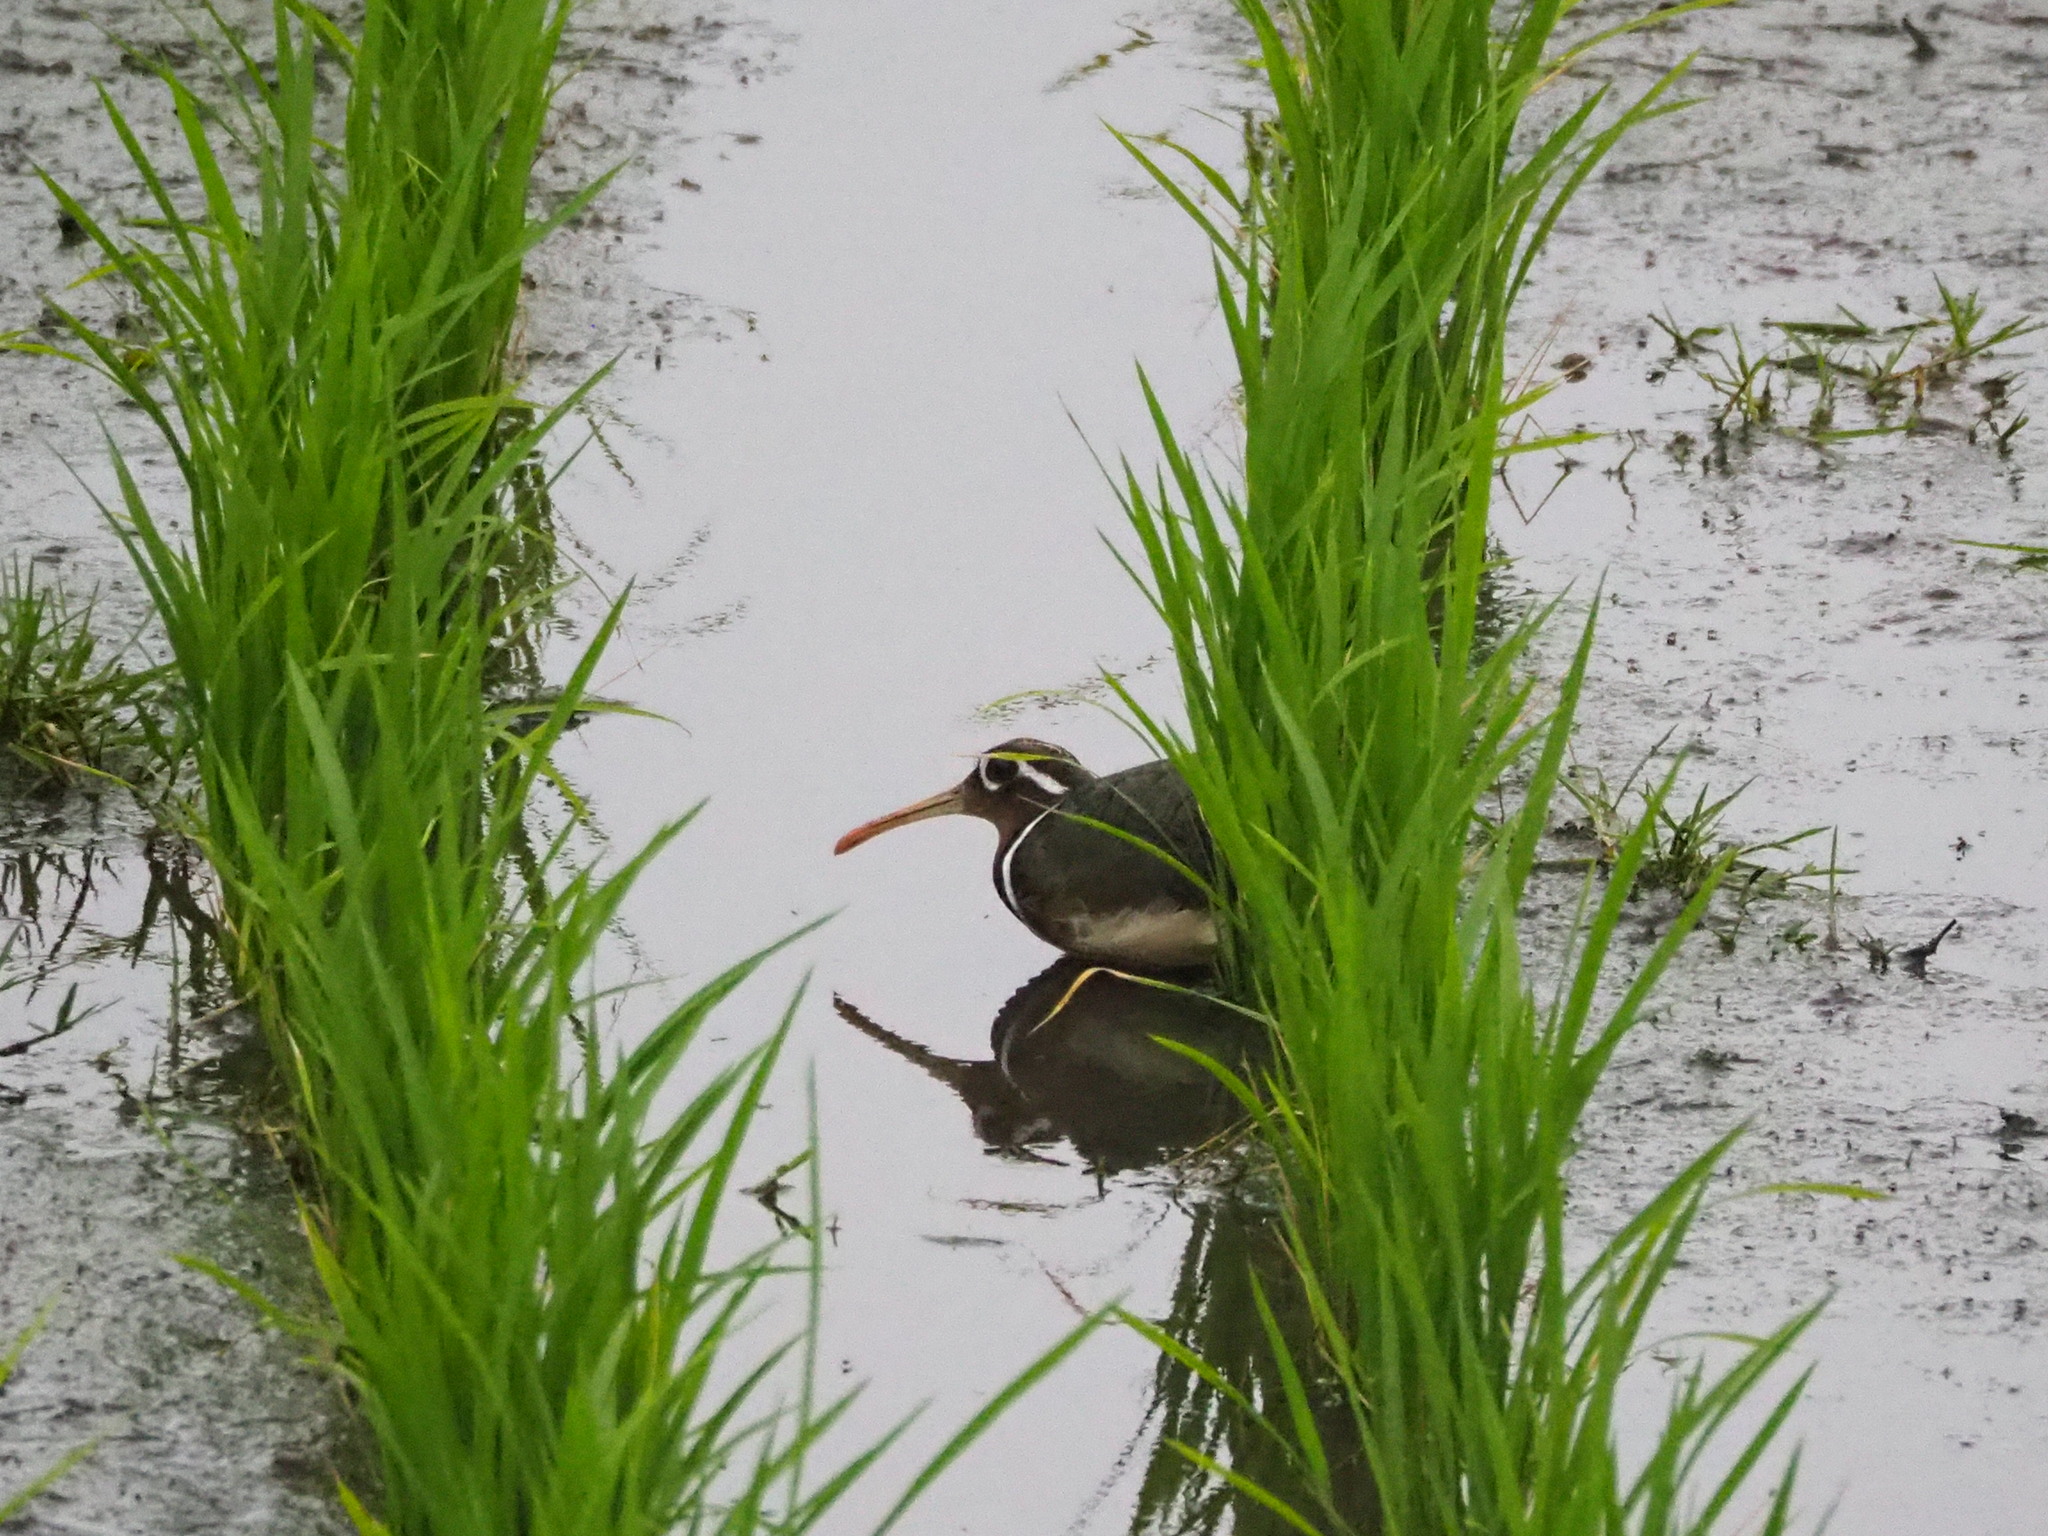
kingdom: Animalia
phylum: Chordata
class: Aves
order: Charadriiformes
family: Rostratulidae
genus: Rostratula
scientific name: Rostratula benghalensis
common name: Greater painted-snipe
